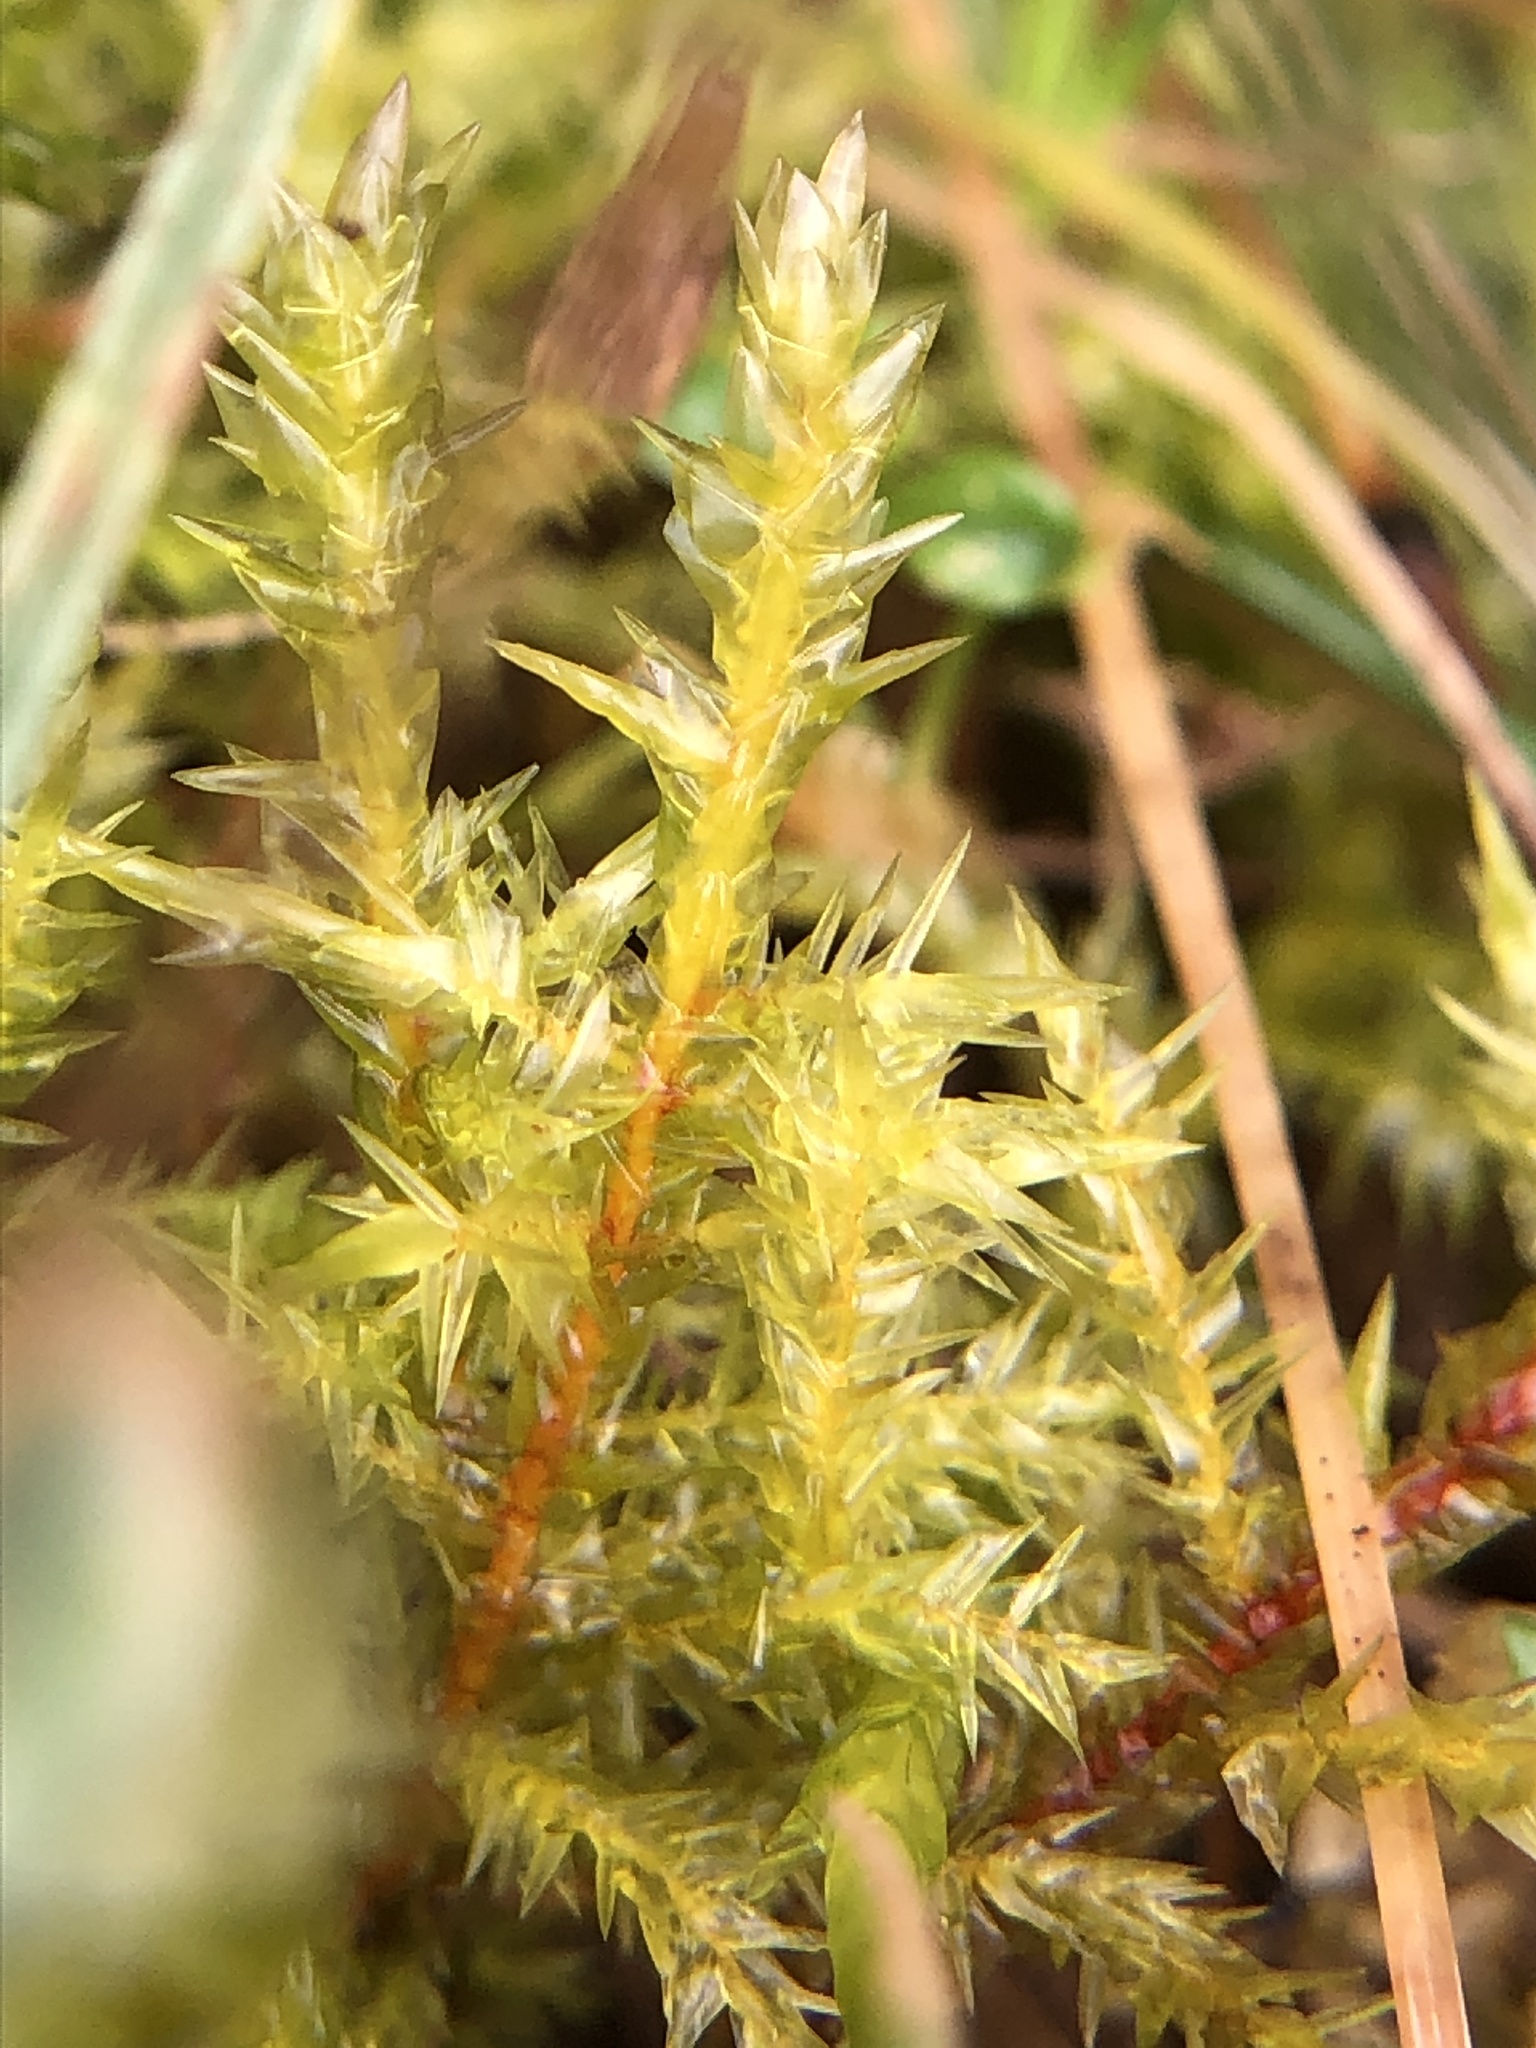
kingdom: Plantae
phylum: Bryophyta
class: Bryopsida
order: Hypnales
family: Pylaisiaceae
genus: Calliergonella
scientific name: Calliergonella cuspidata
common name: Common large wetland moss
